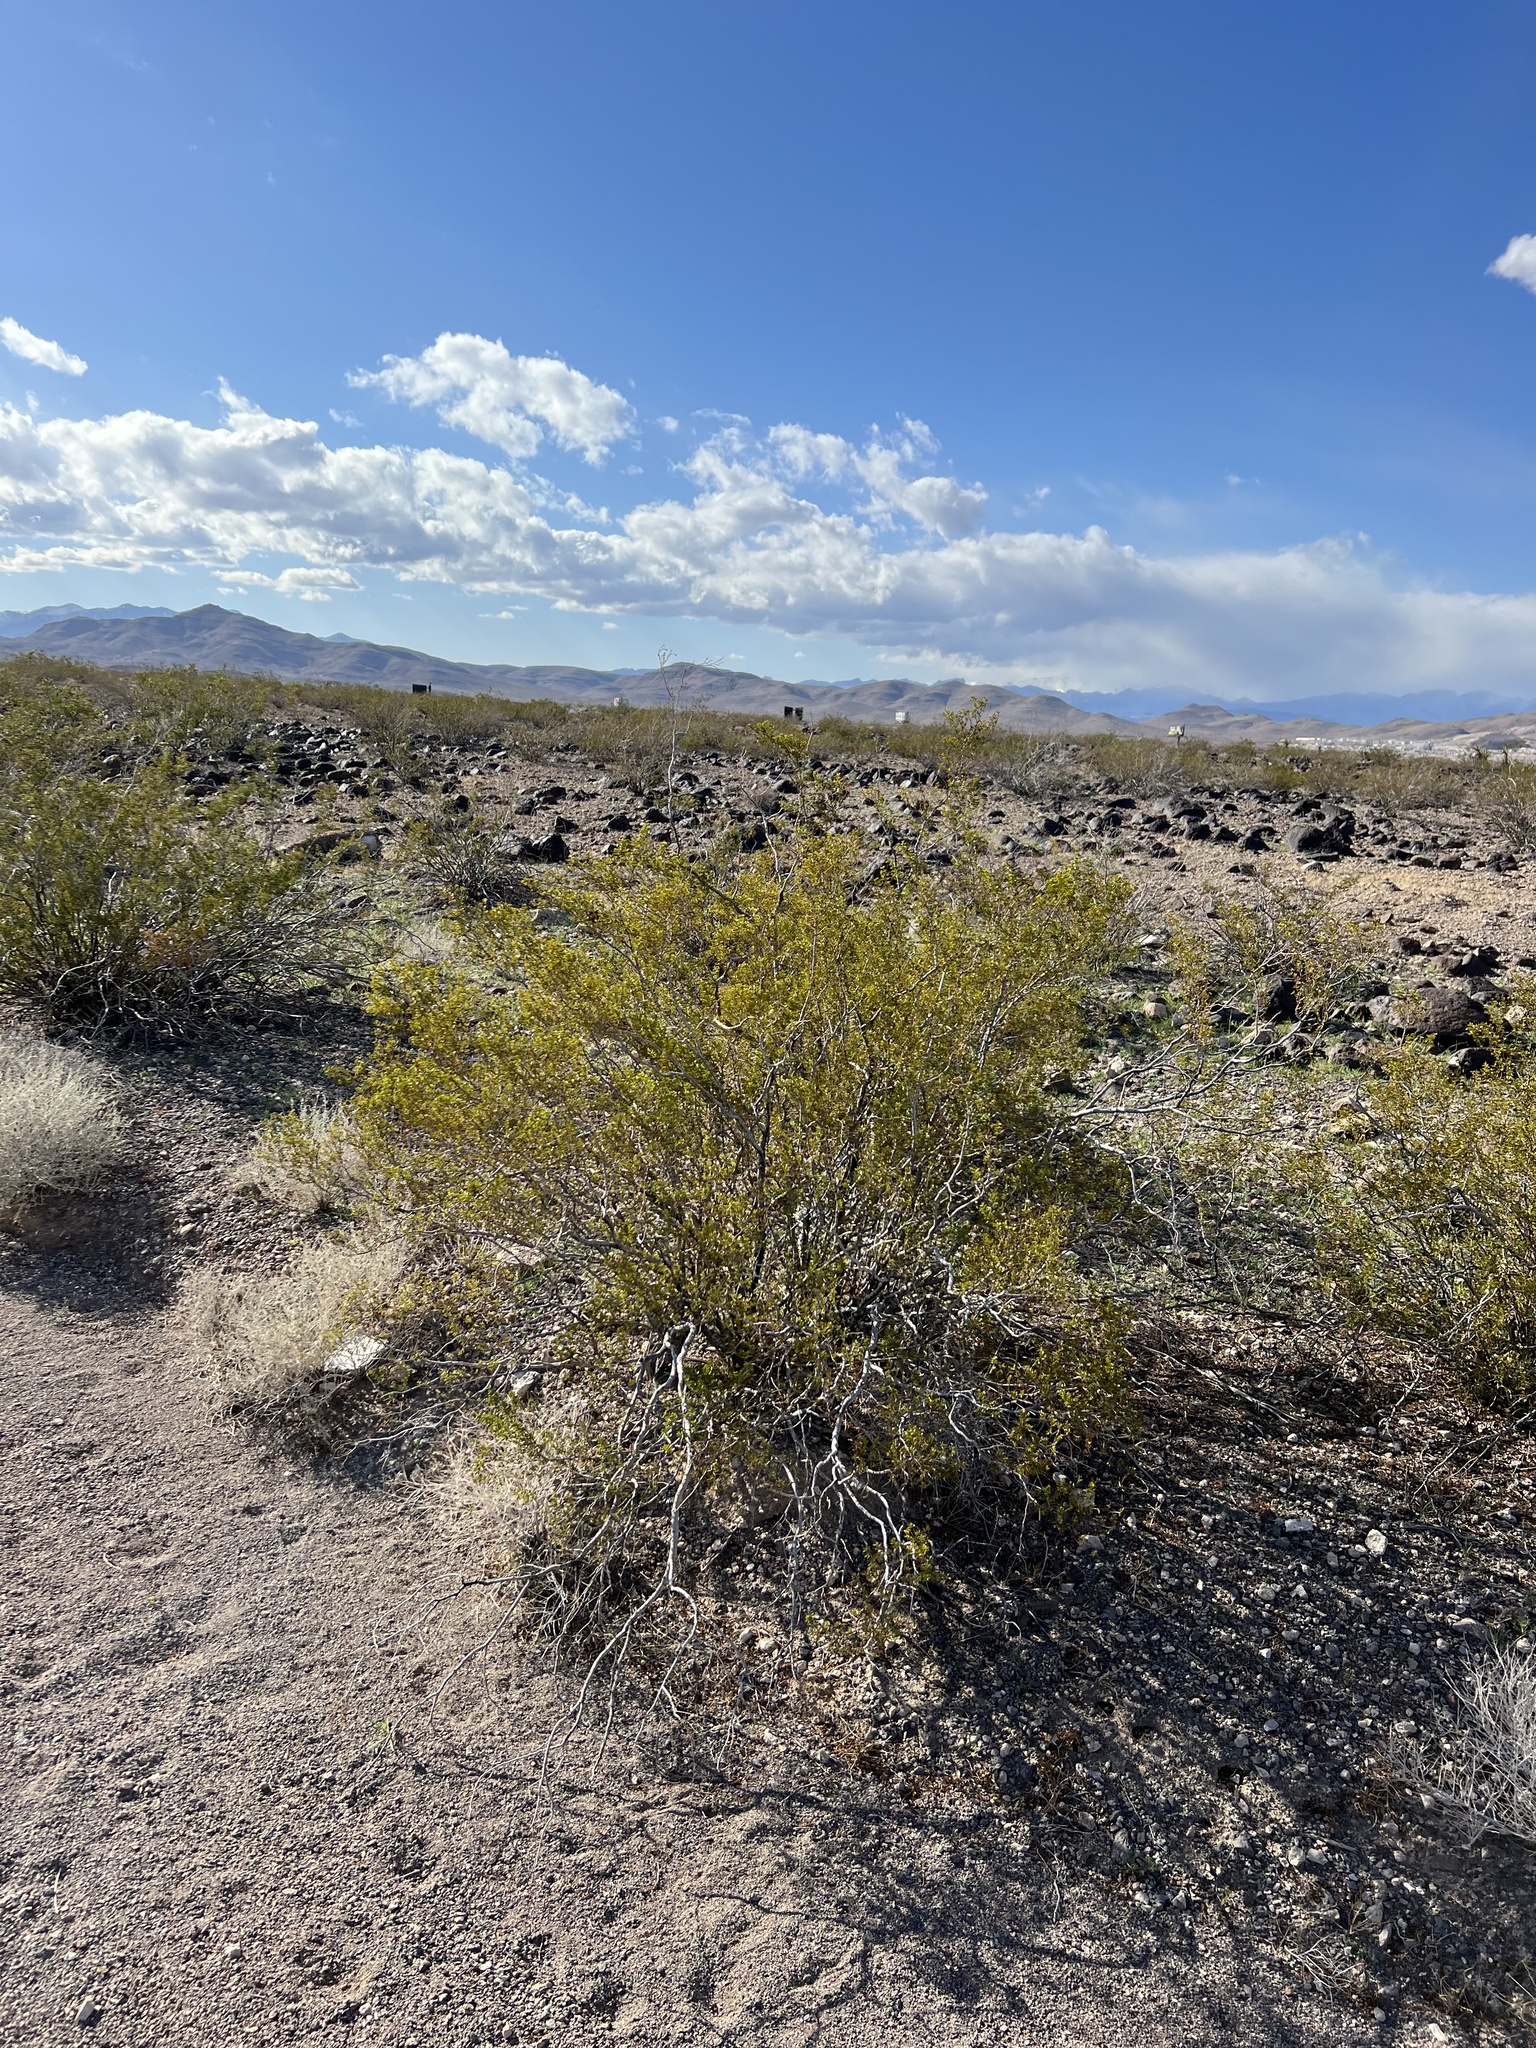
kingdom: Plantae
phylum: Tracheophyta
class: Magnoliopsida
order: Zygophyllales
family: Zygophyllaceae
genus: Larrea
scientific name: Larrea tridentata
